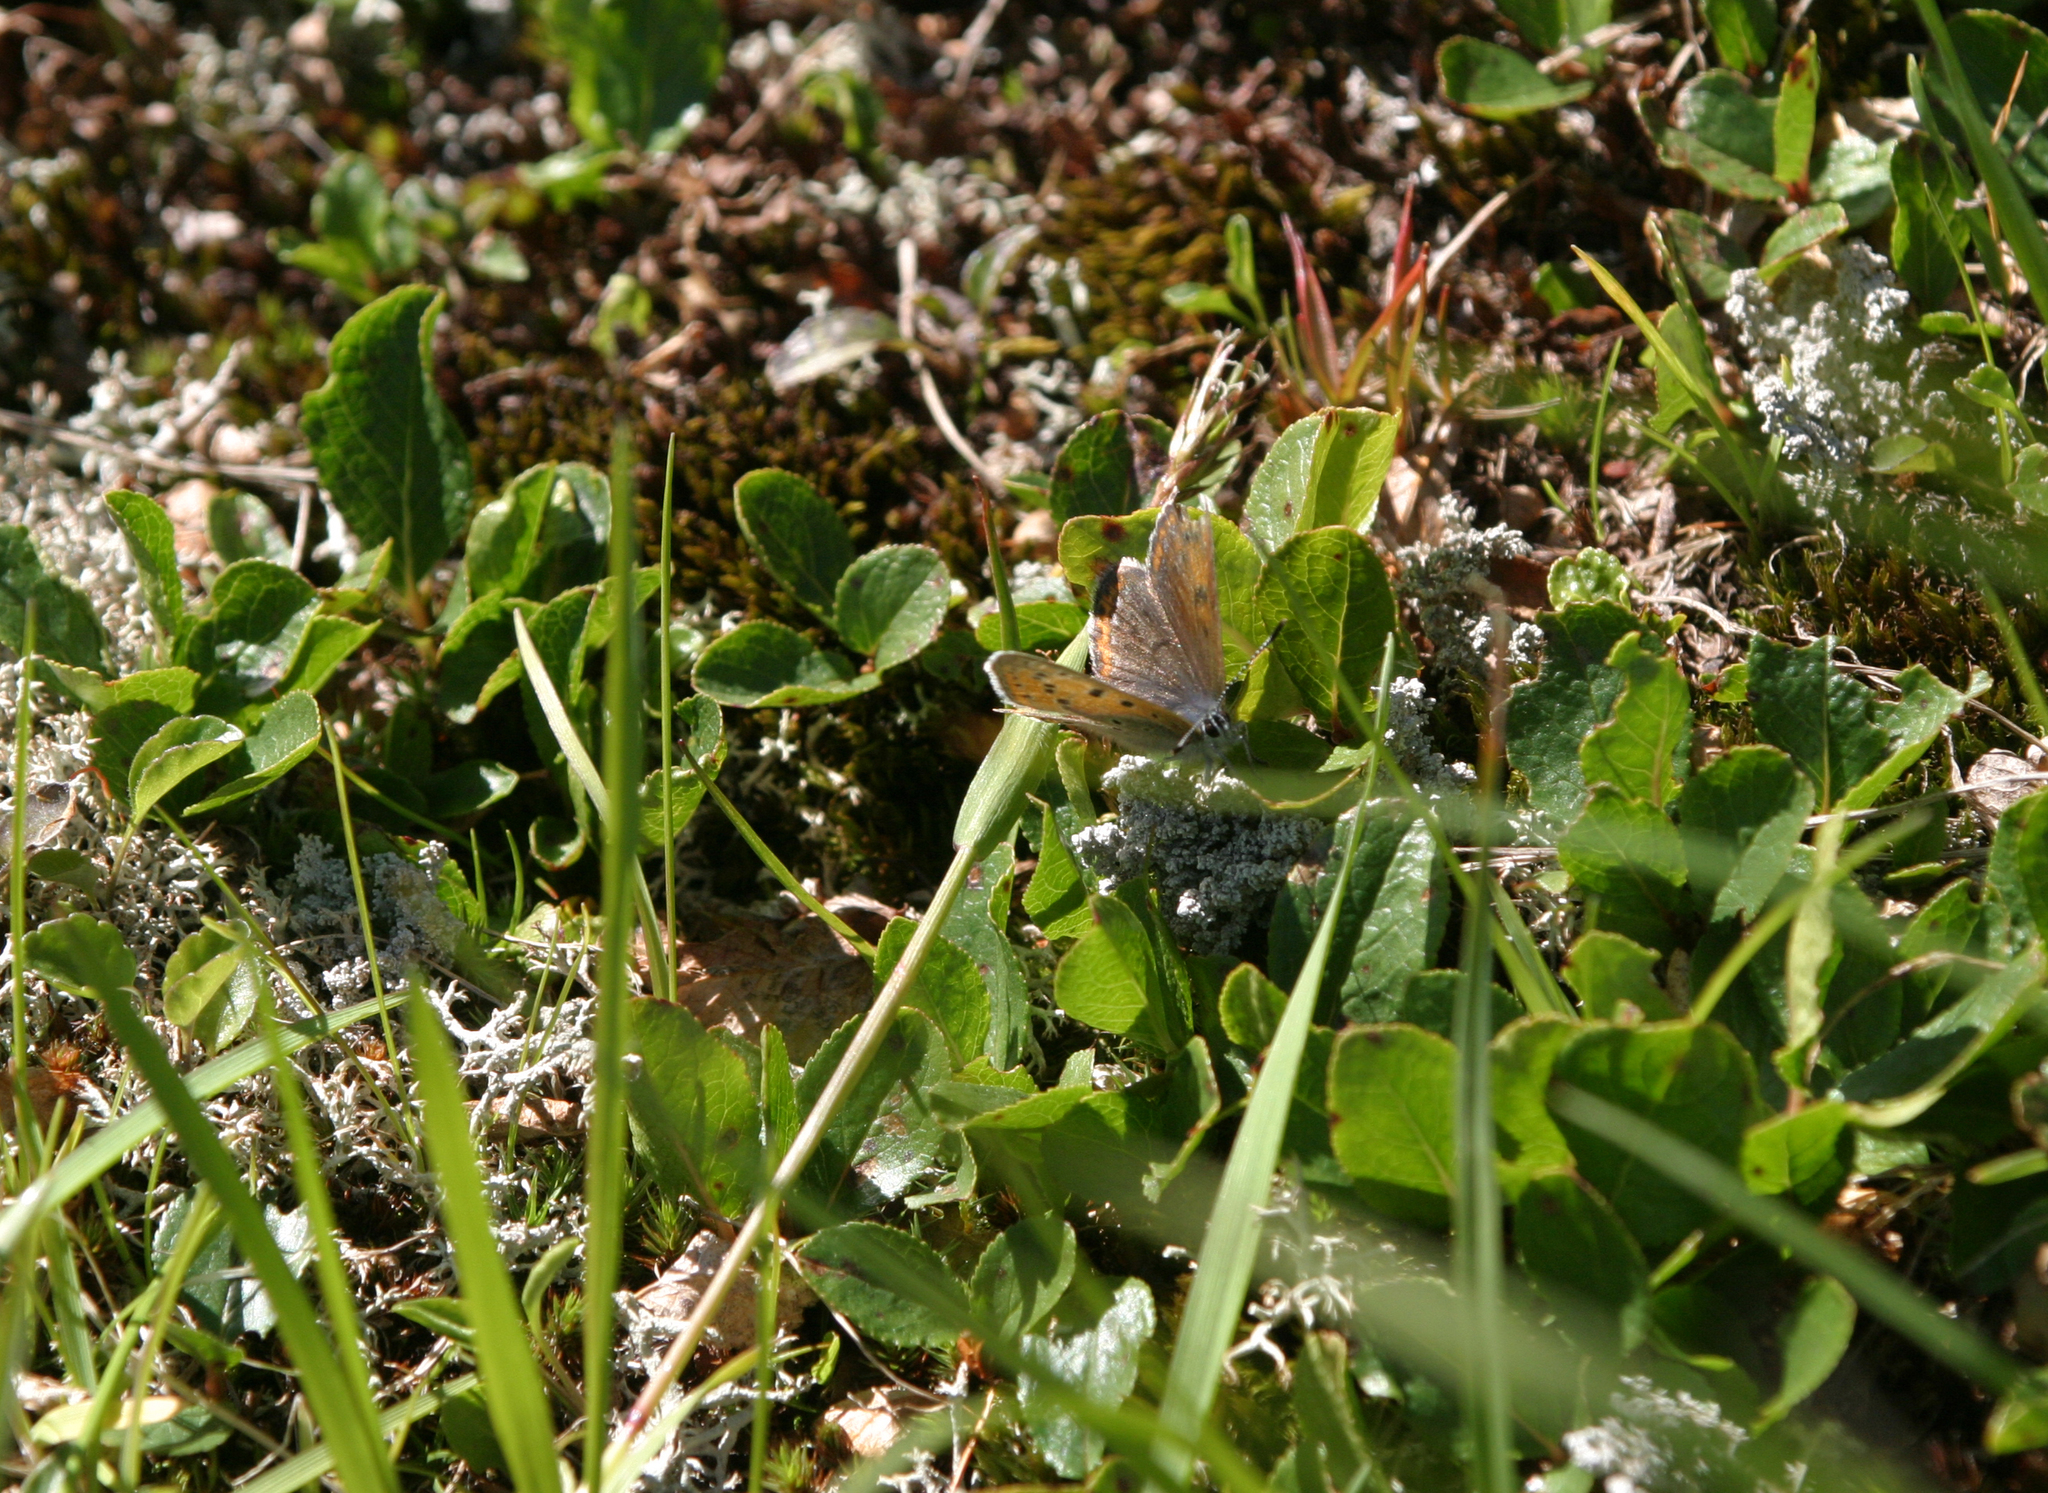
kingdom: Animalia
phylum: Arthropoda
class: Insecta
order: Lepidoptera
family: Lycaenidae
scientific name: Lycaenidae
